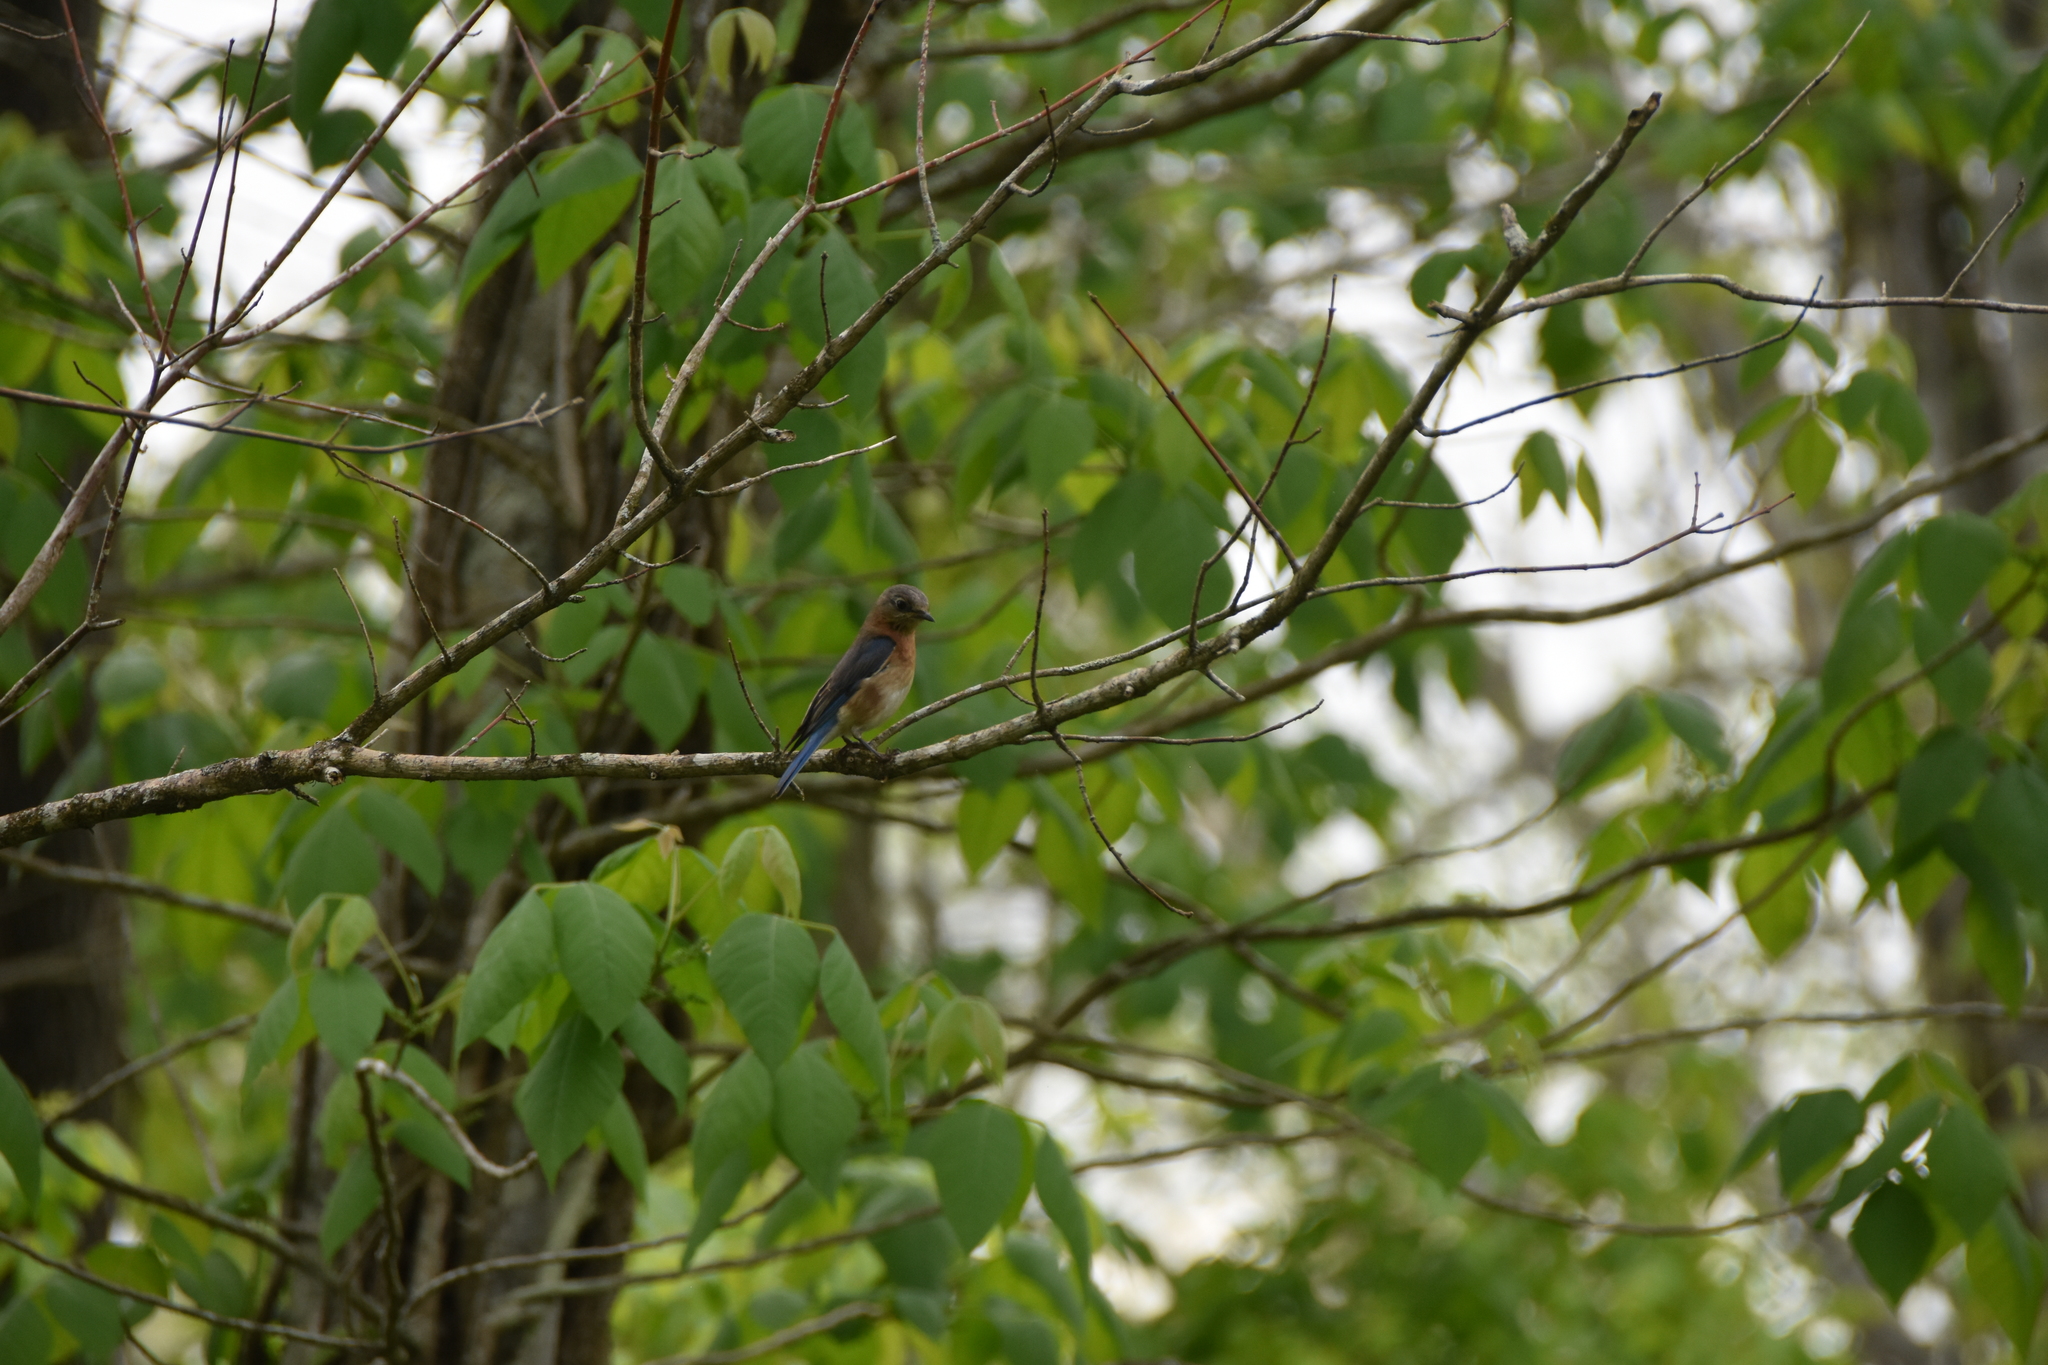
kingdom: Animalia
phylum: Chordata
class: Aves
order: Passeriformes
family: Turdidae
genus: Sialia
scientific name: Sialia sialis
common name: Eastern bluebird
